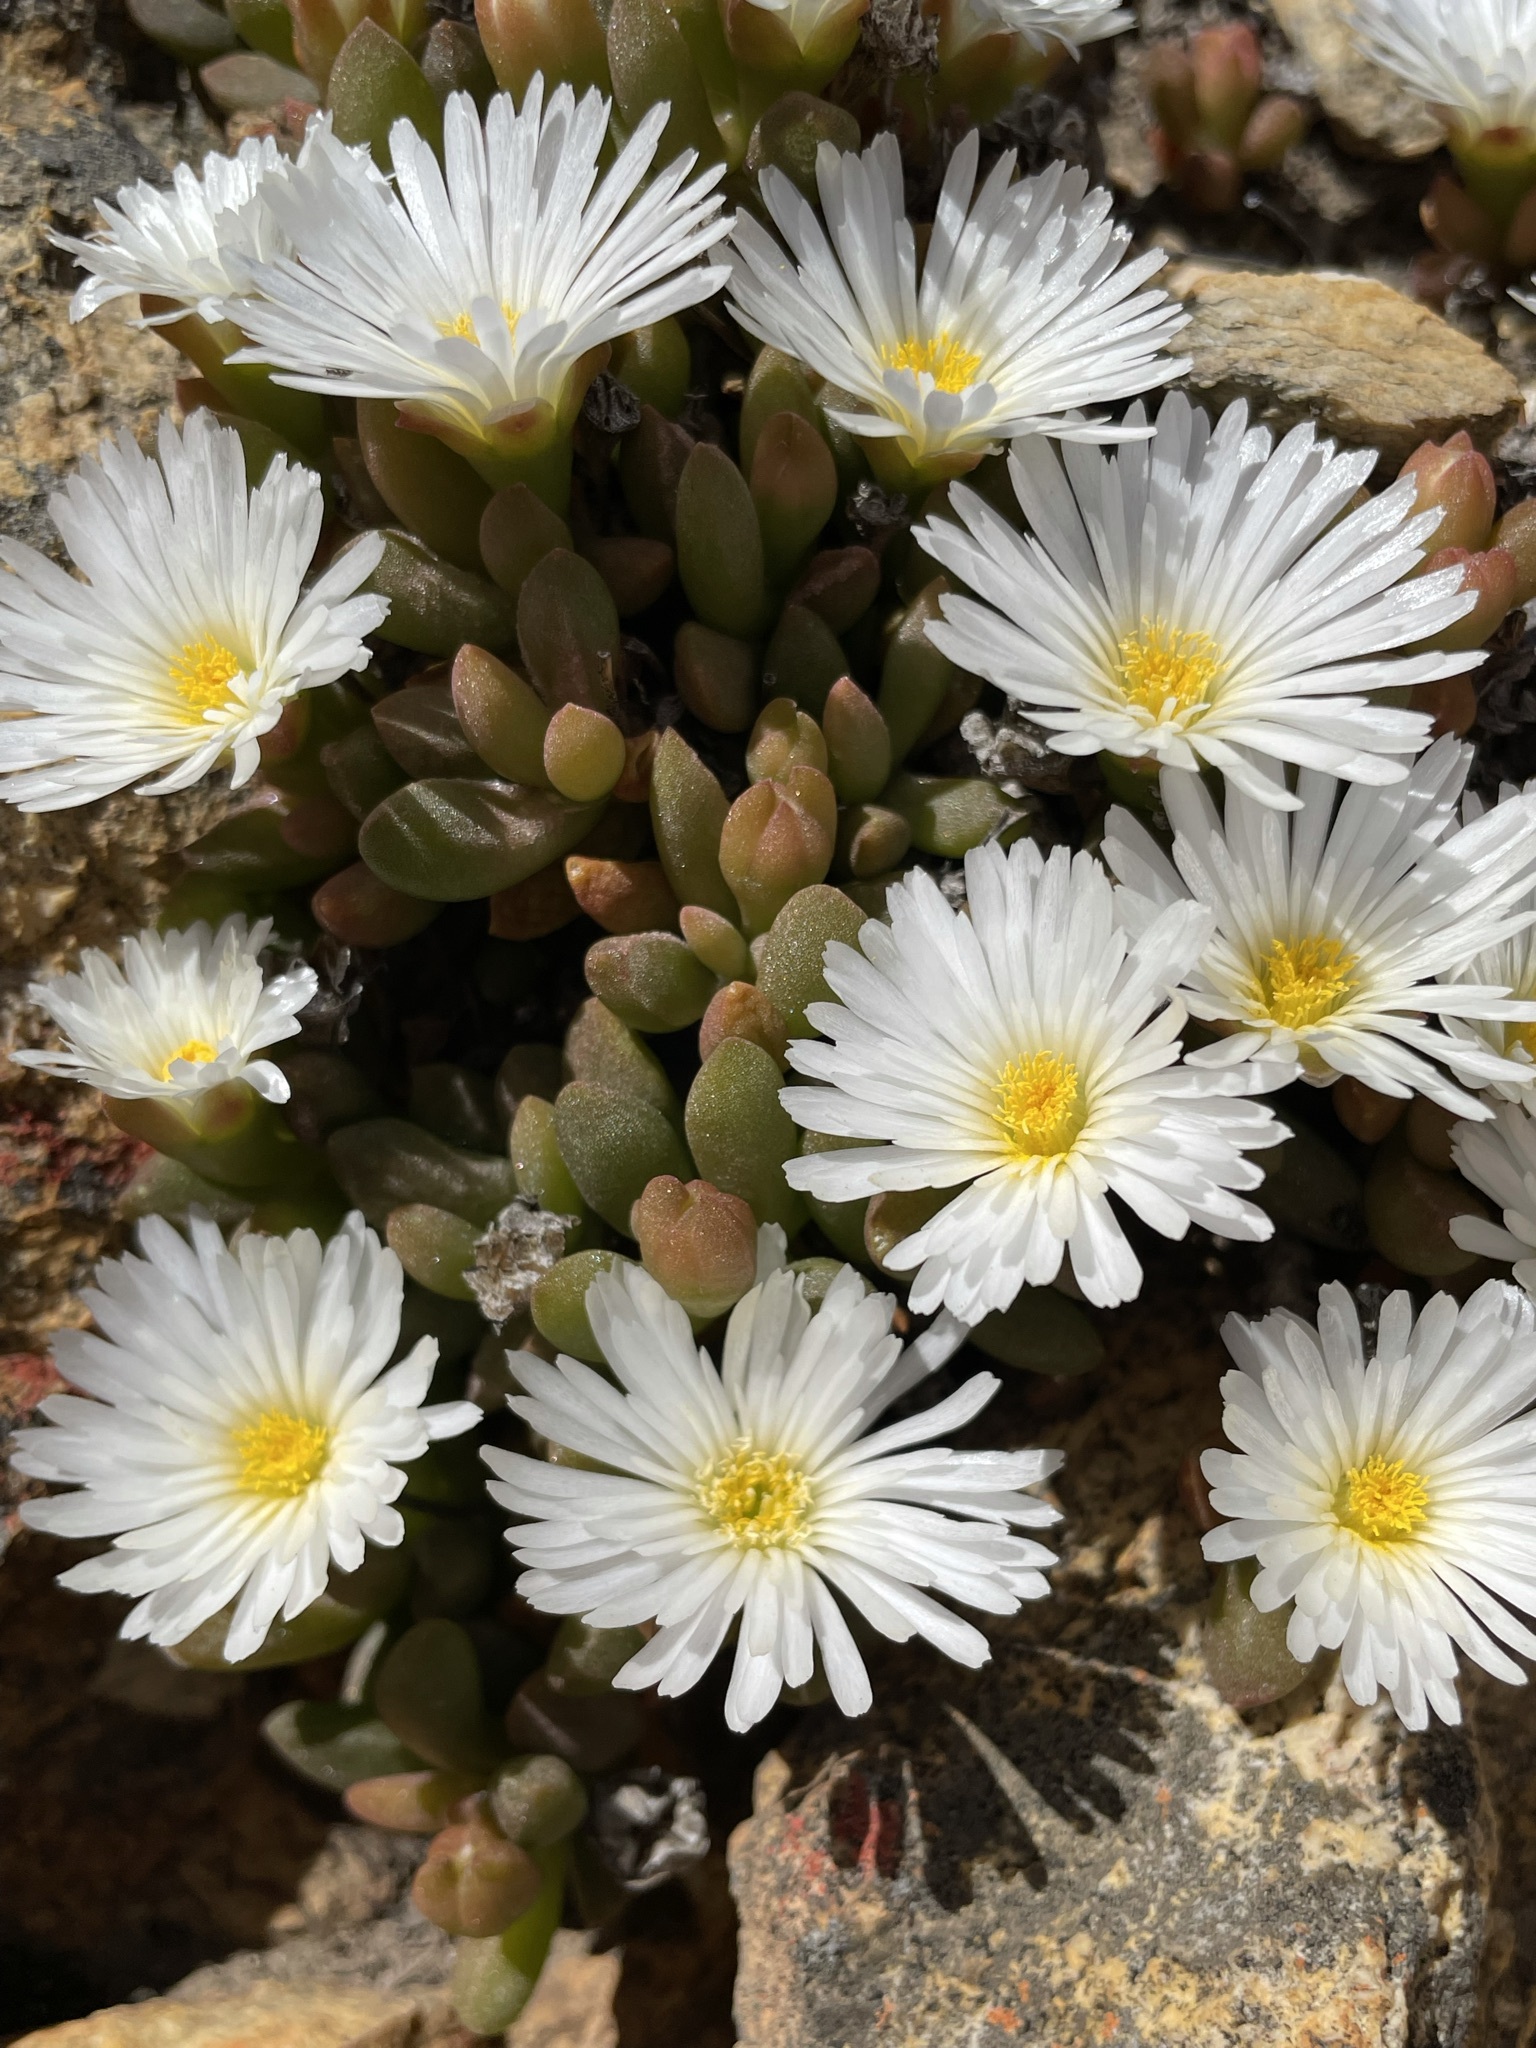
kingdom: Plantae
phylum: Tracheophyta
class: Magnoliopsida
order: Caryophyllales
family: Aizoaceae
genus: Delosperma
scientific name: Delosperma esterhuyseniae
